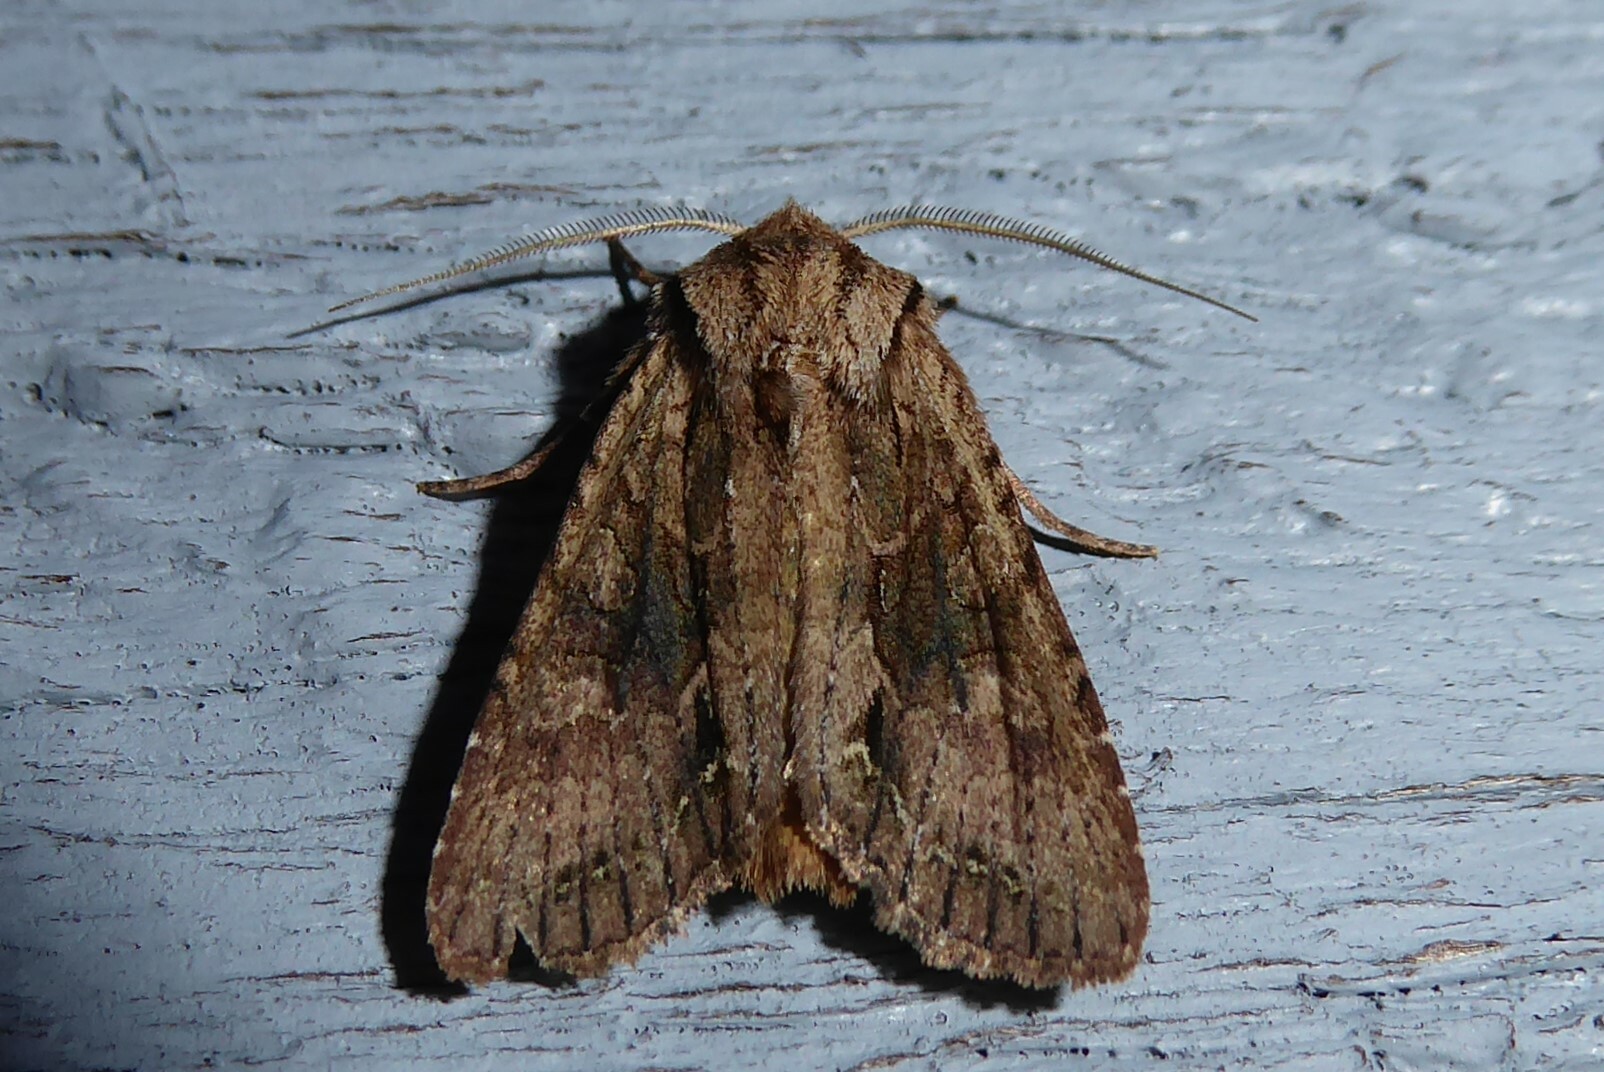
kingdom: Animalia
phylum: Arthropoda
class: Insecta
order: Lepidoptera
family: Noctuidae
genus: Ichneutica
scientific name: Ichneutica
